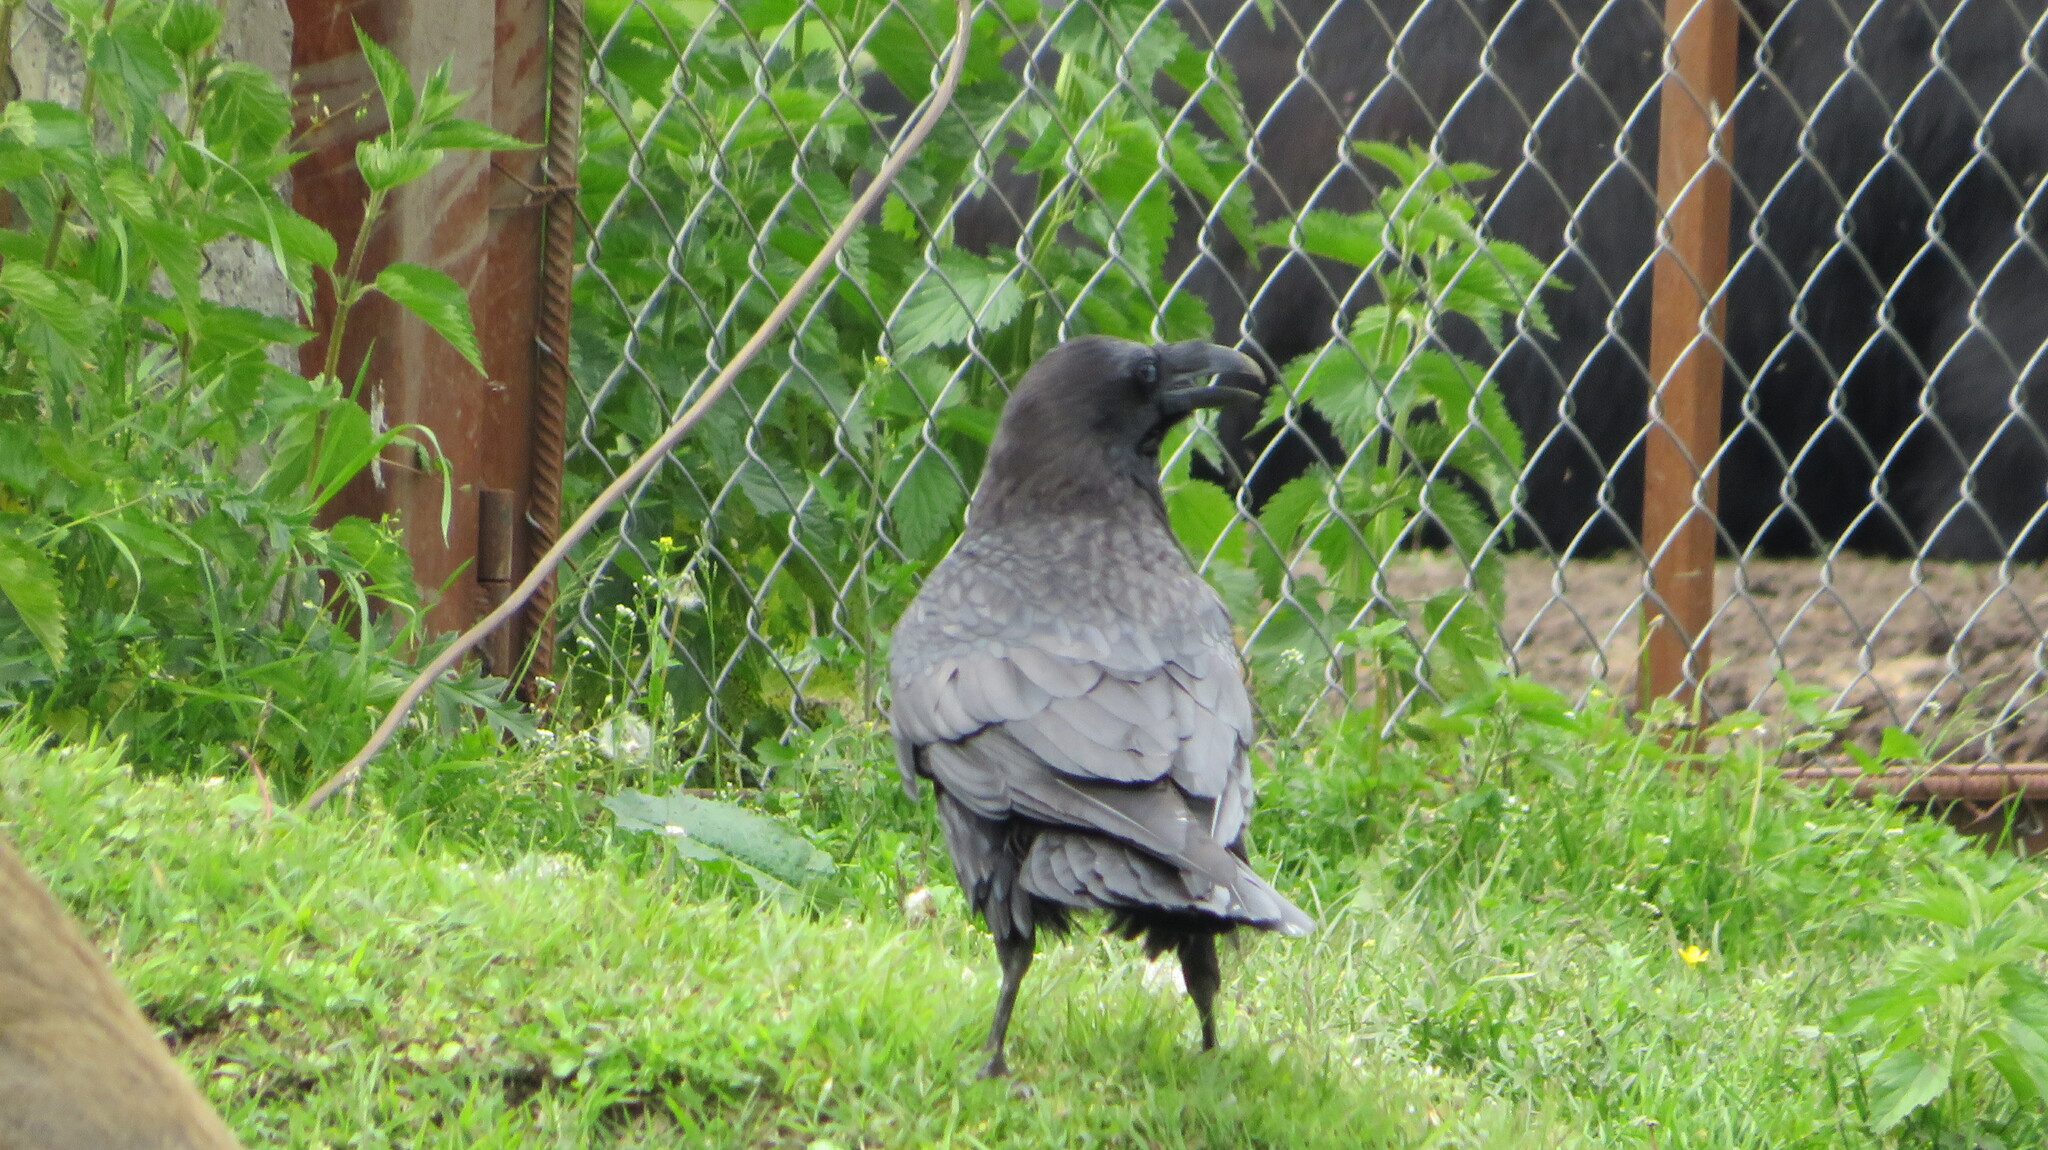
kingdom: Animalia
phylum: Chordata
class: Aves
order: Passeriformes
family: Corvidae
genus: Corvus
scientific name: Corvus corax
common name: Common raven
